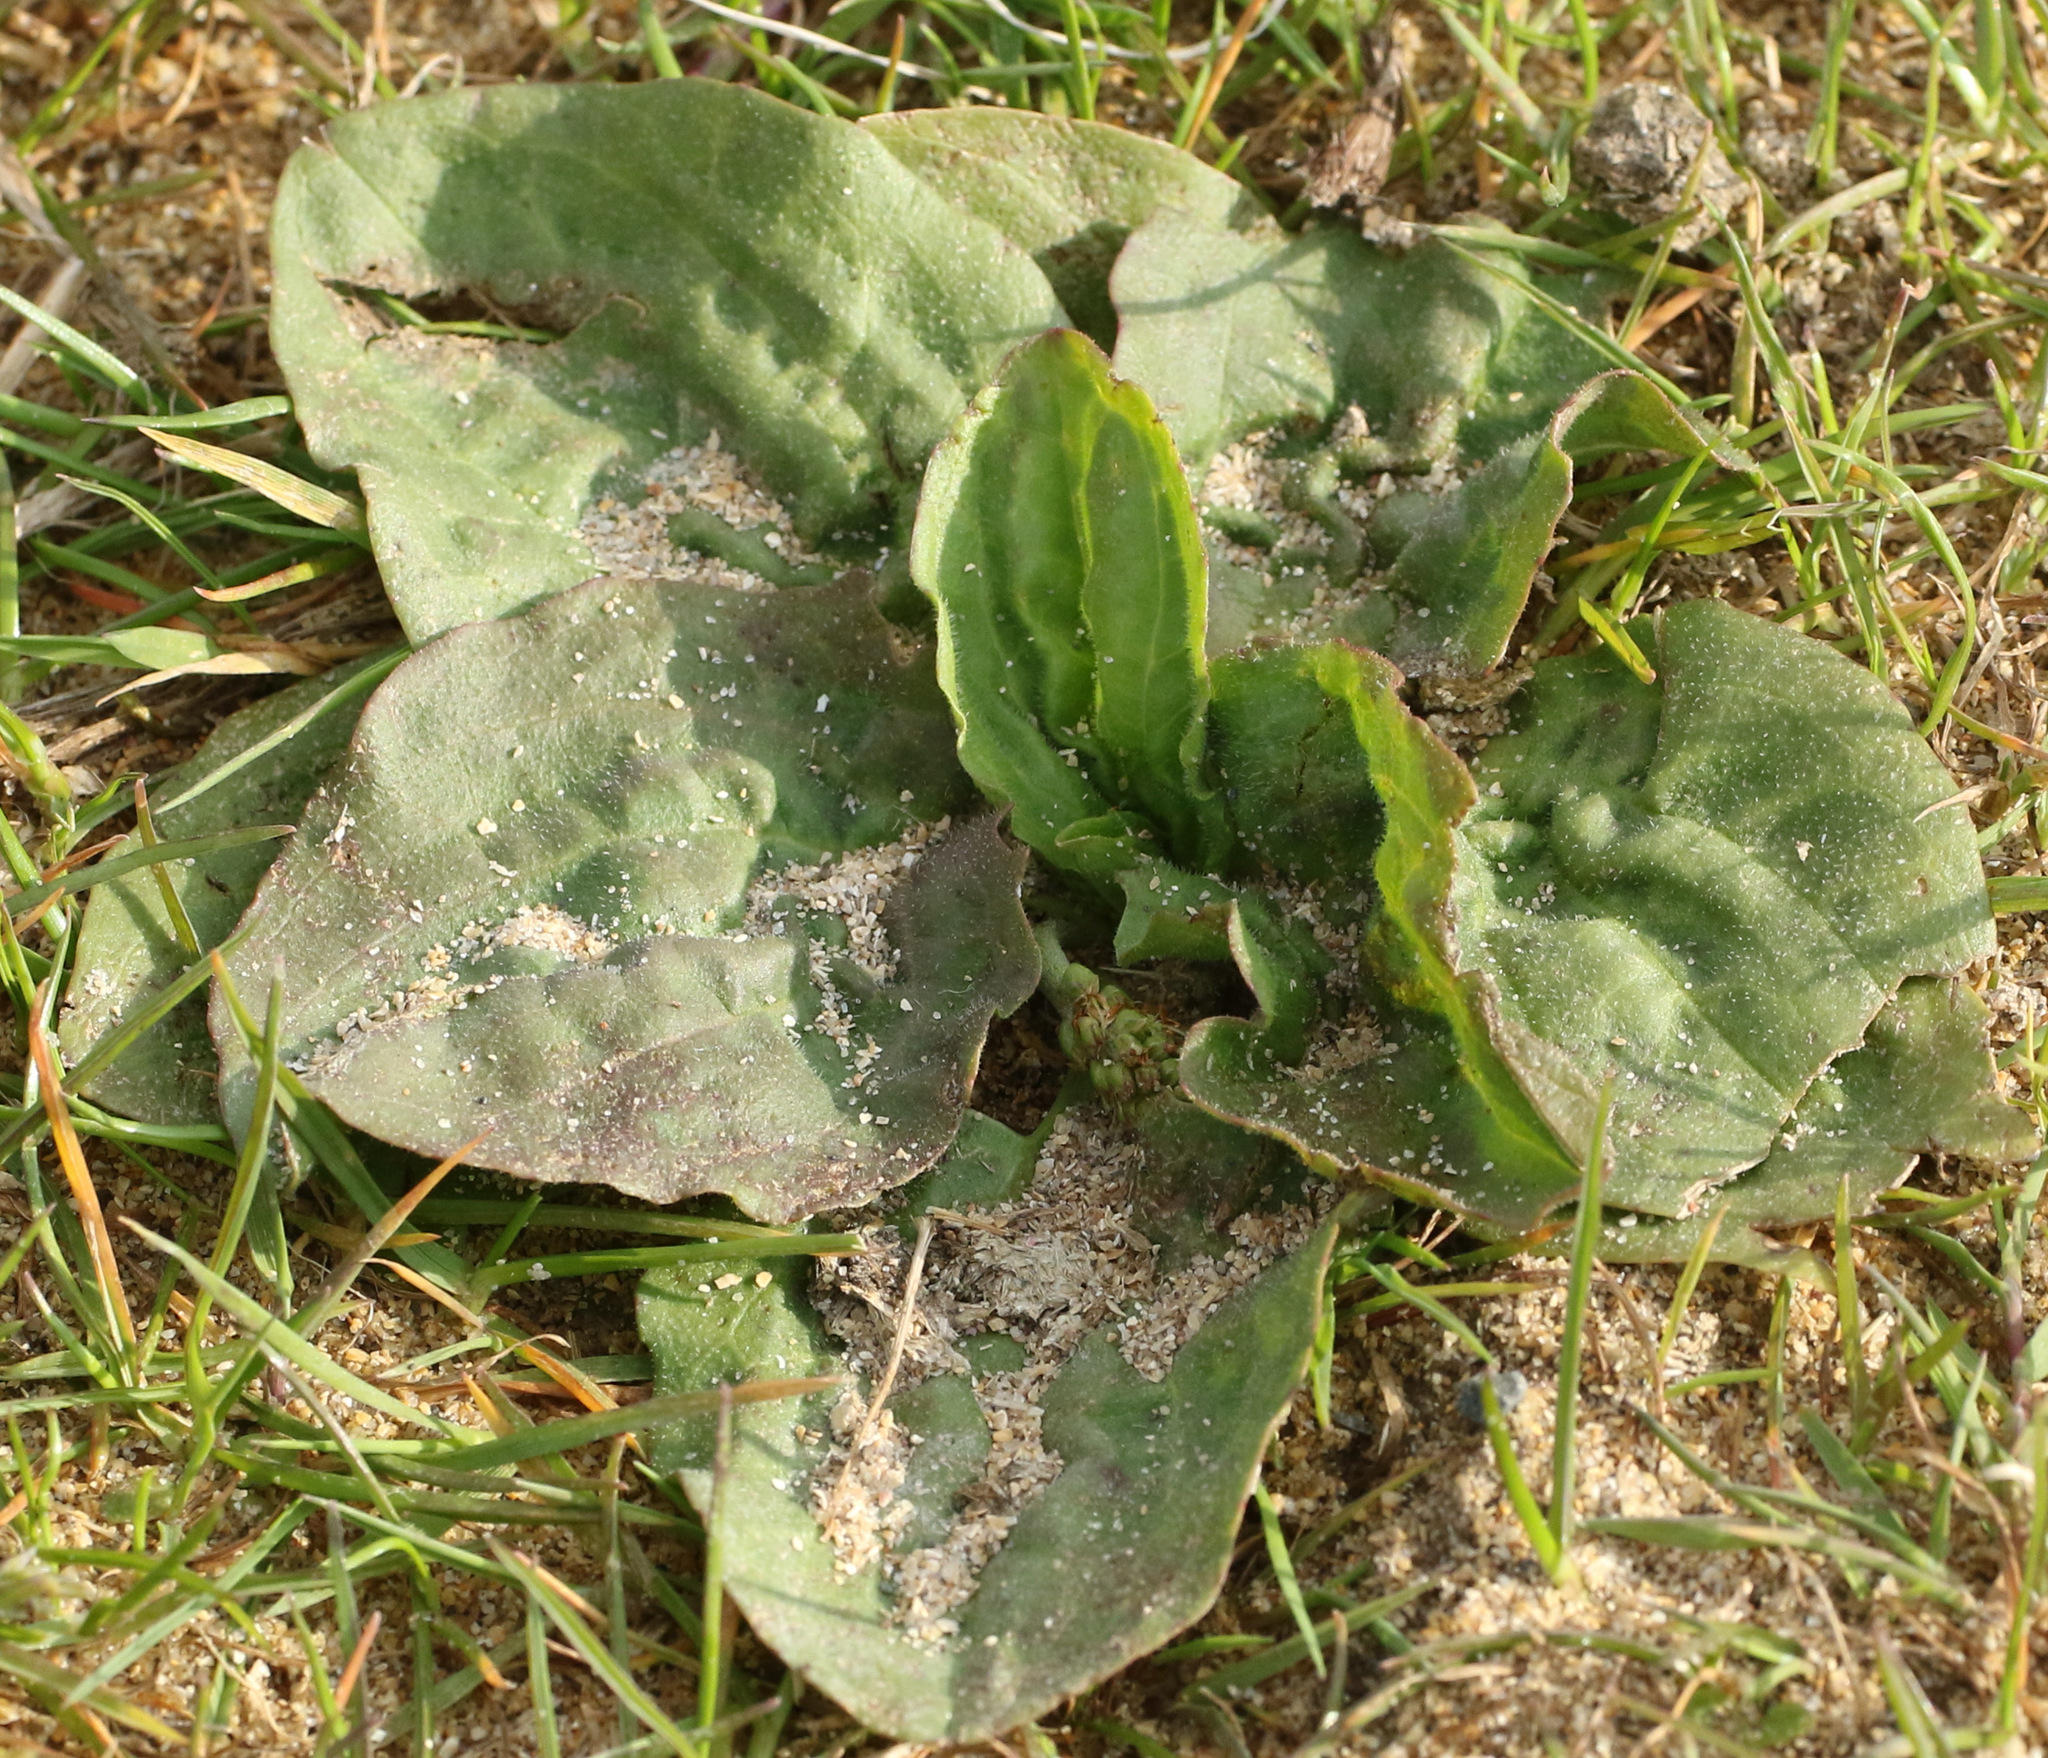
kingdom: Plantae
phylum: Tracheophyta
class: Magnoliopsida
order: Lamiales
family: Plantaginaceae
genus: Plantago
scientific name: Plantago major
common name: Common plantain
